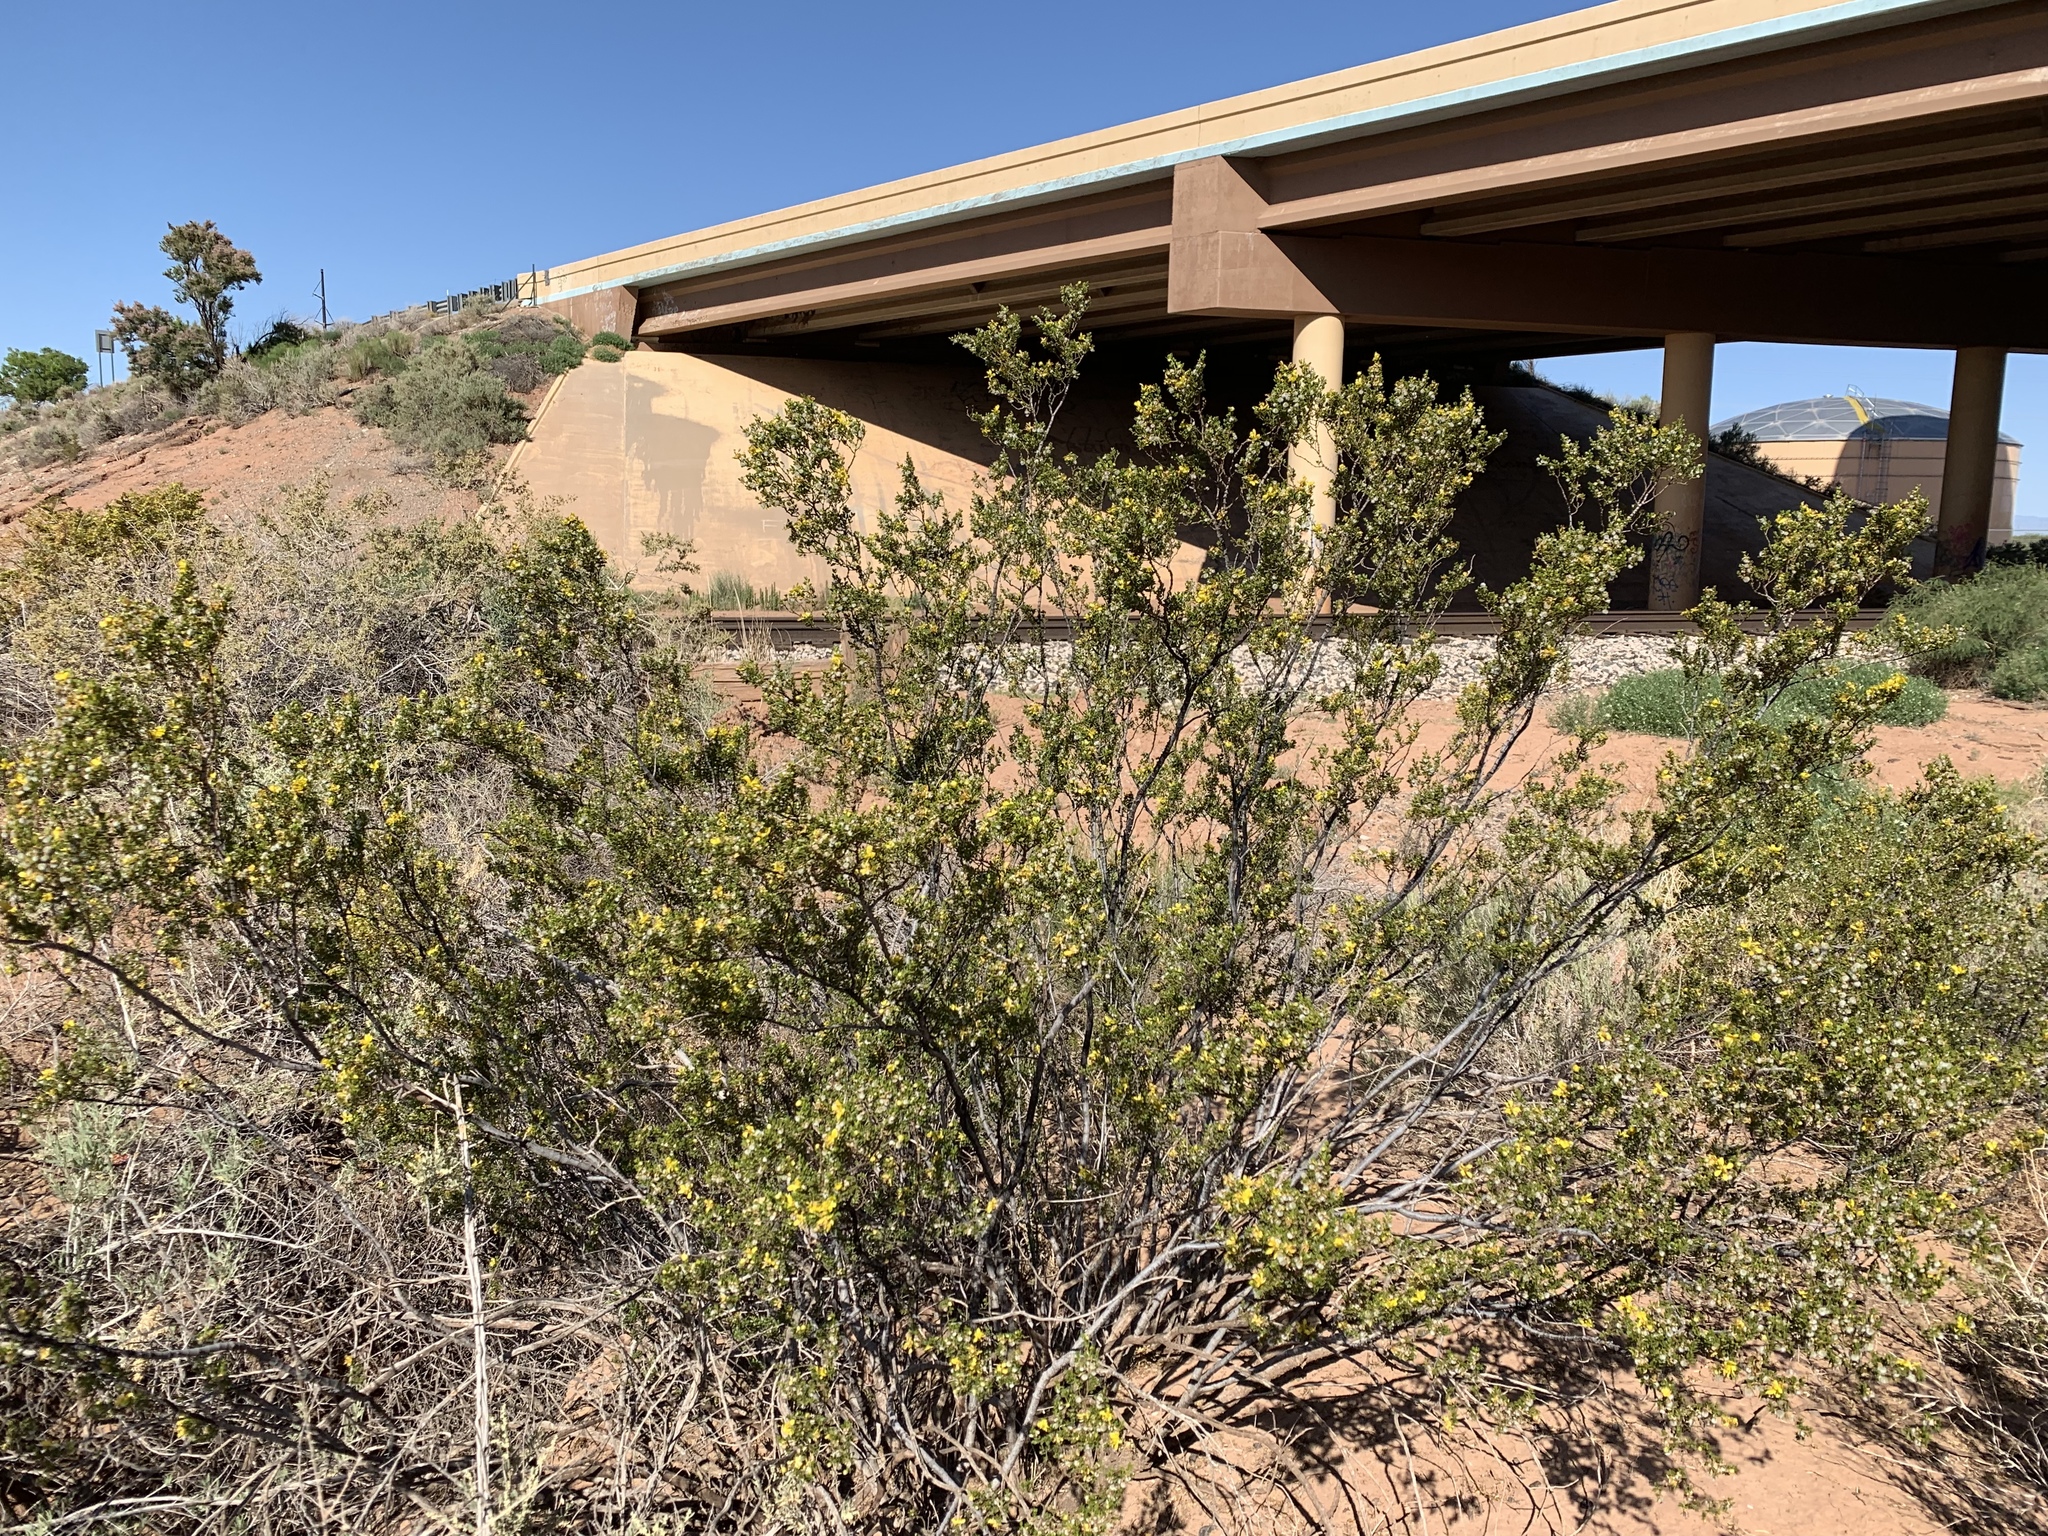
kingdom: Plantae
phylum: Tracheophyta
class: Magnoliopsida
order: Zygophyllales
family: Zygophyllaceae
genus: Larrea
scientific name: Larrea tridentata
